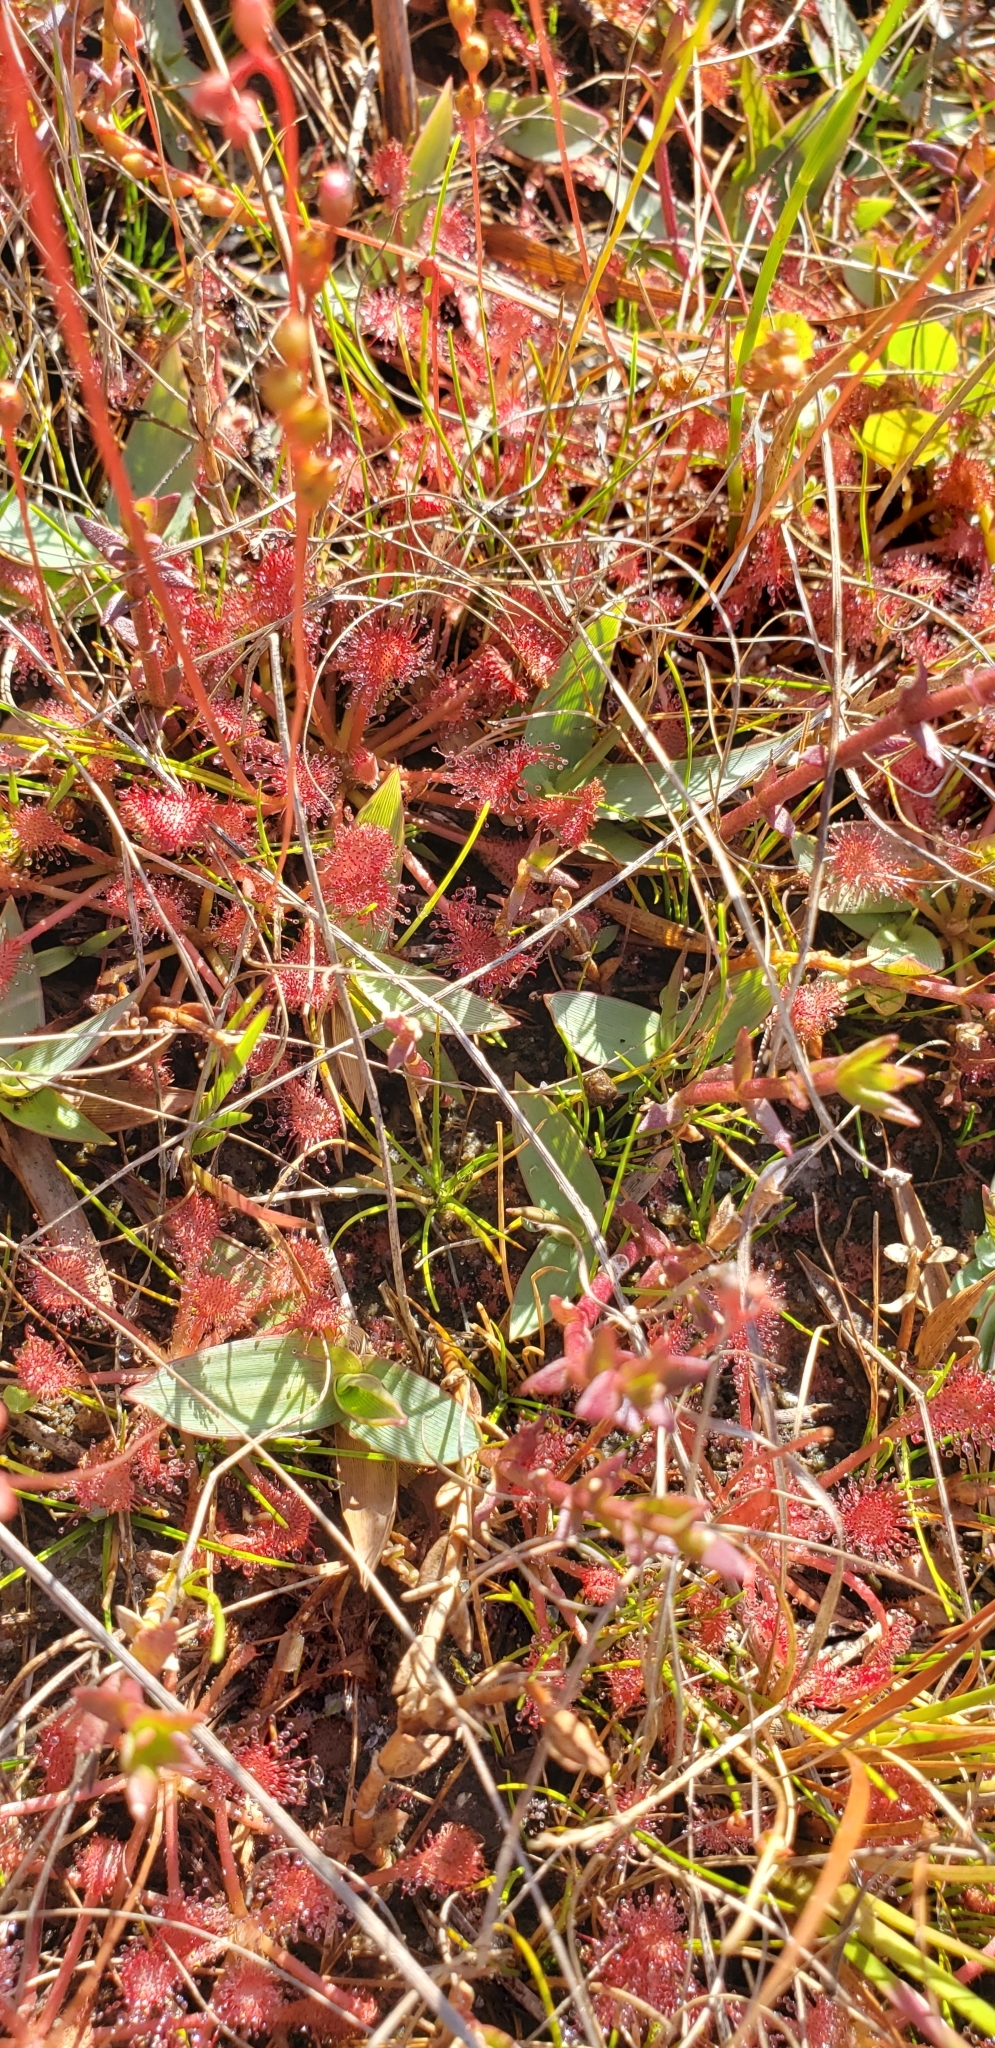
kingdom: Plantae
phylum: Tracheophyta
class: Magnoliopsida
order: Caryophyllales
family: Droseraceae
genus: Drosera
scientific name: Drosera capillaris
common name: Pink sundew
